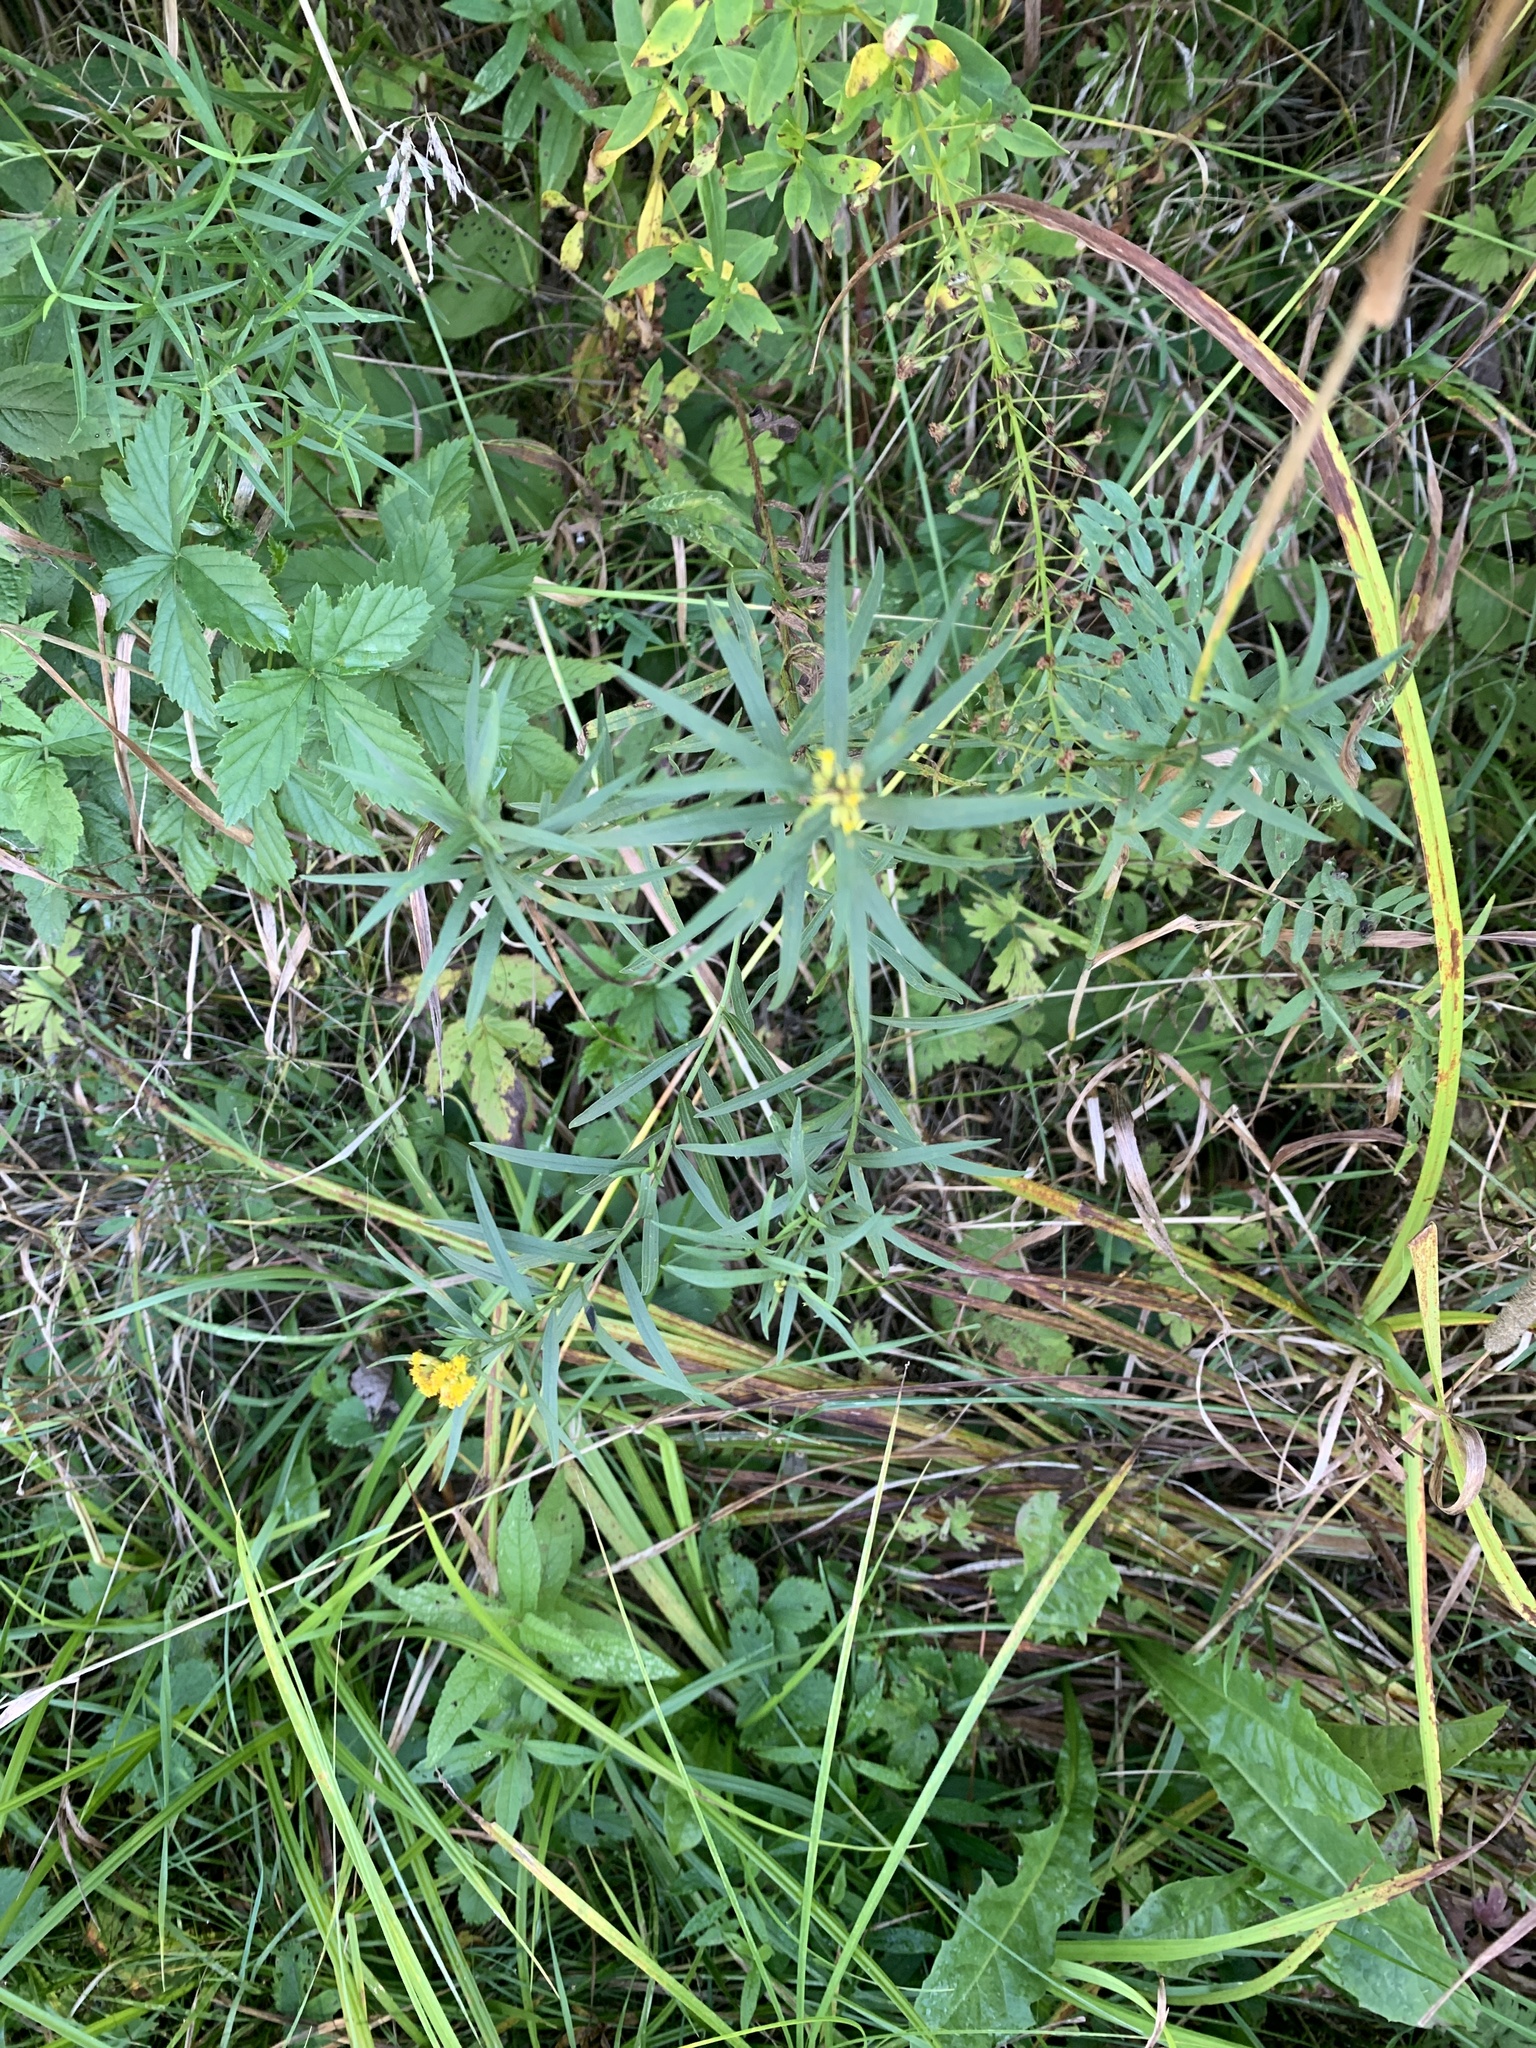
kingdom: Plantae
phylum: Tracheophyta
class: Magnoliopsida
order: Asterales
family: Asteraceae
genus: Euthamia
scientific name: Euthamia graminifolia
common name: Common goldentop
